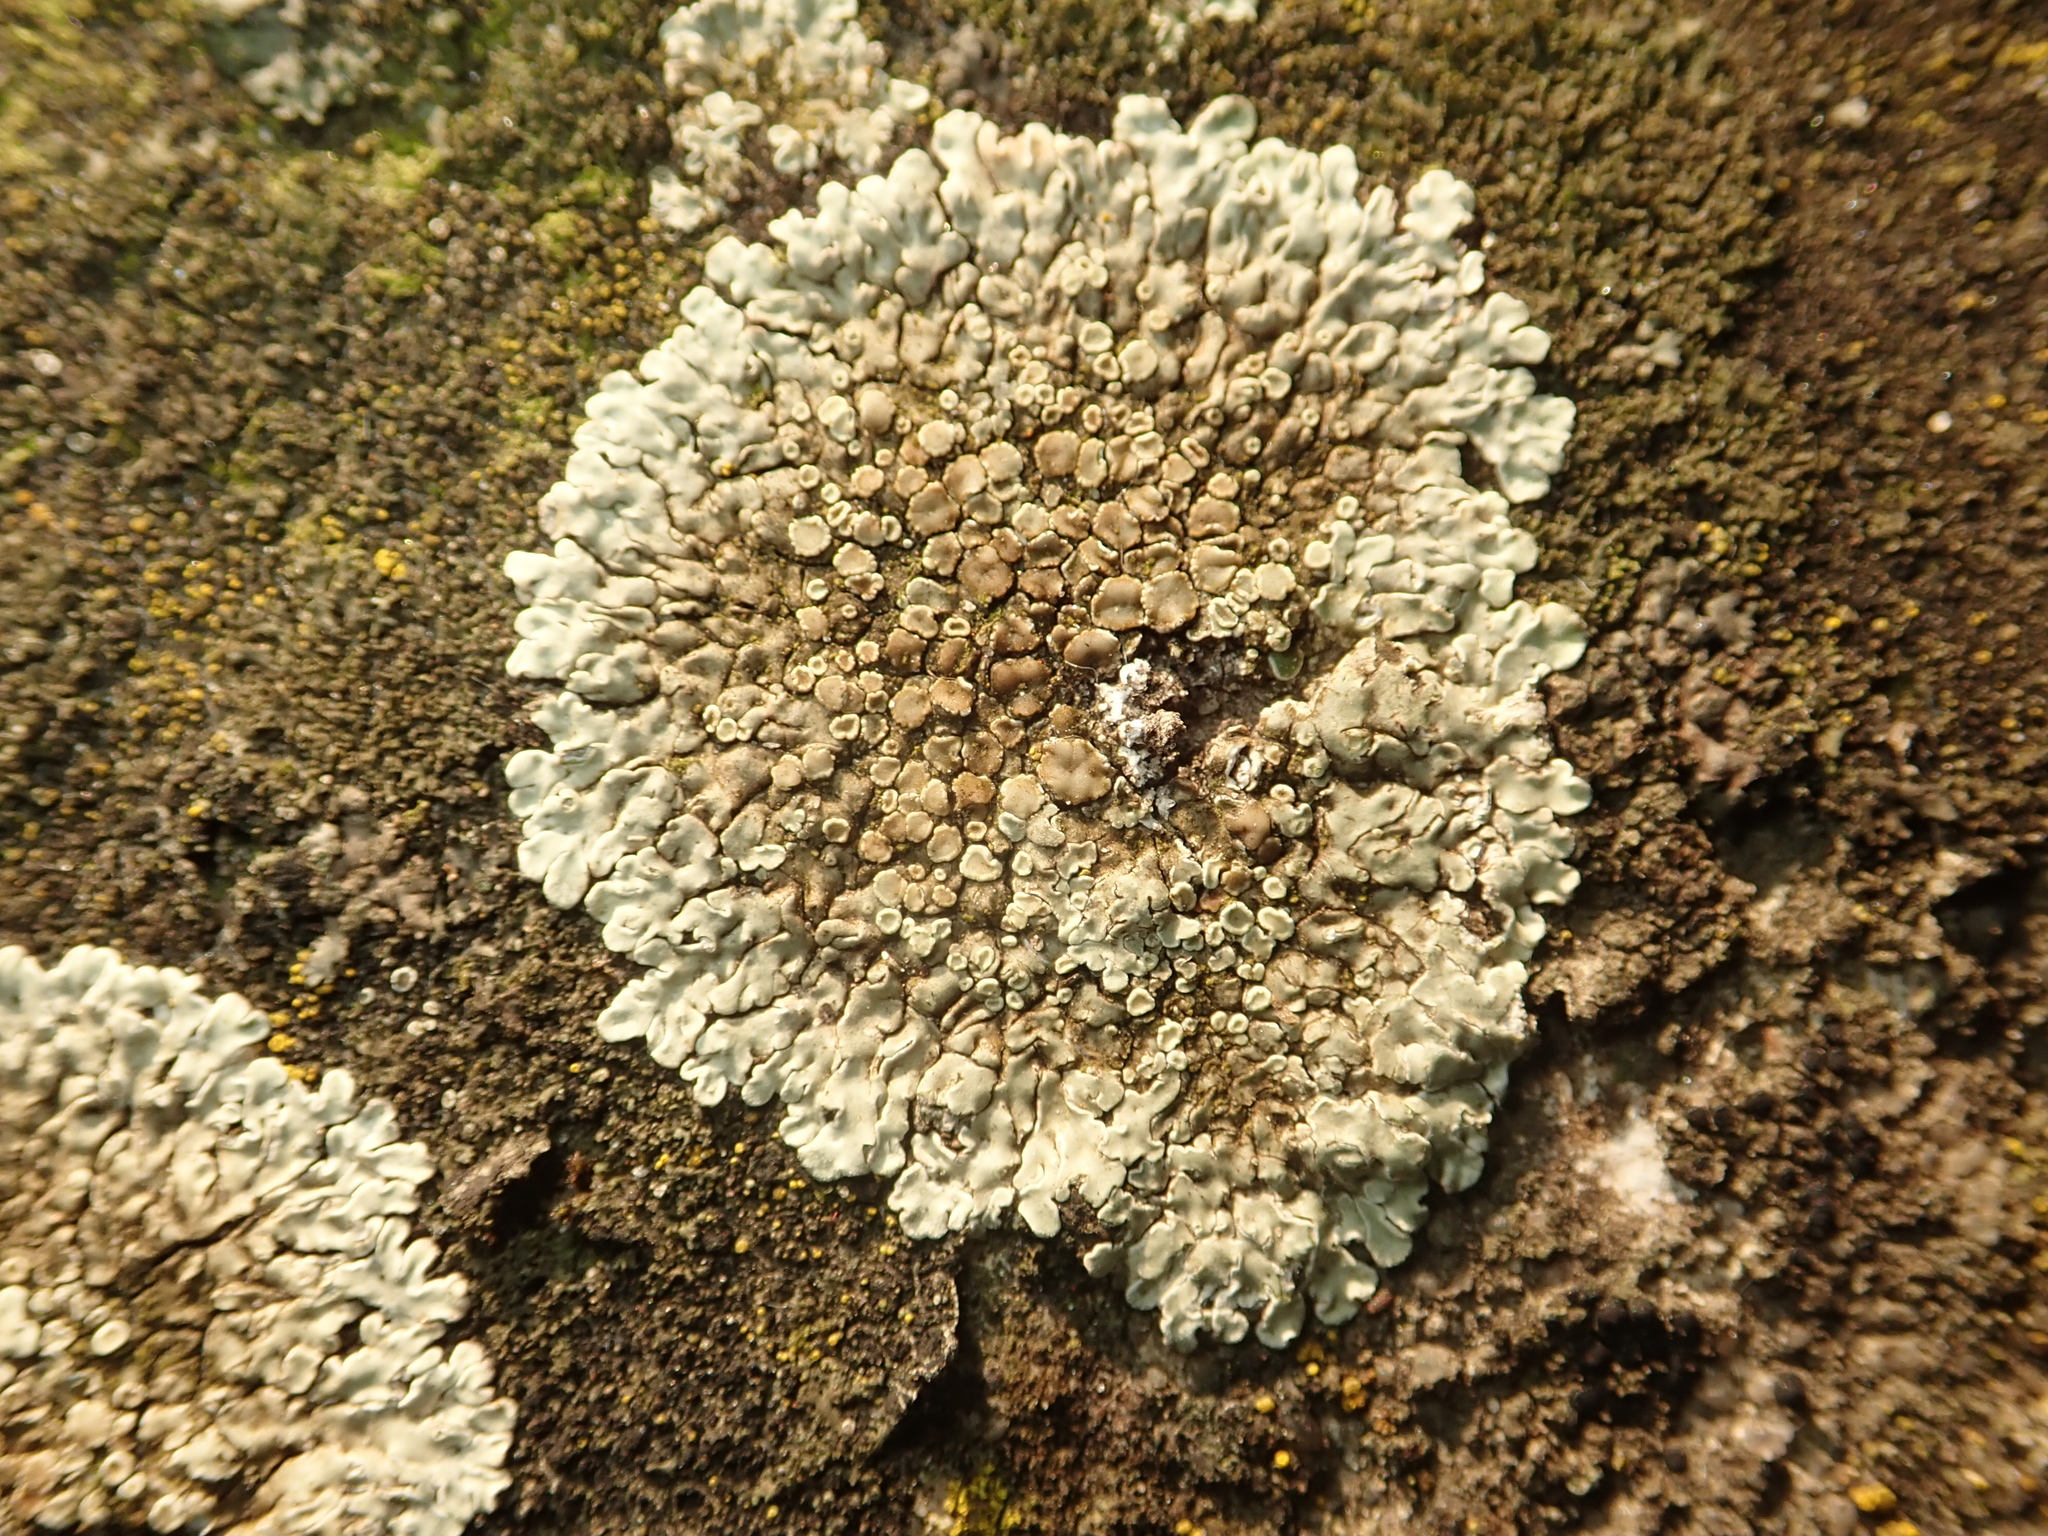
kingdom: Fungi
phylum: Ascomycota
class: Lecanoromycetes
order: Lecanorales
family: Lecanoraceae
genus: Protoparmeliopsis
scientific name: Protoparmeliopsis muralis
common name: Stonewall rim lichen
